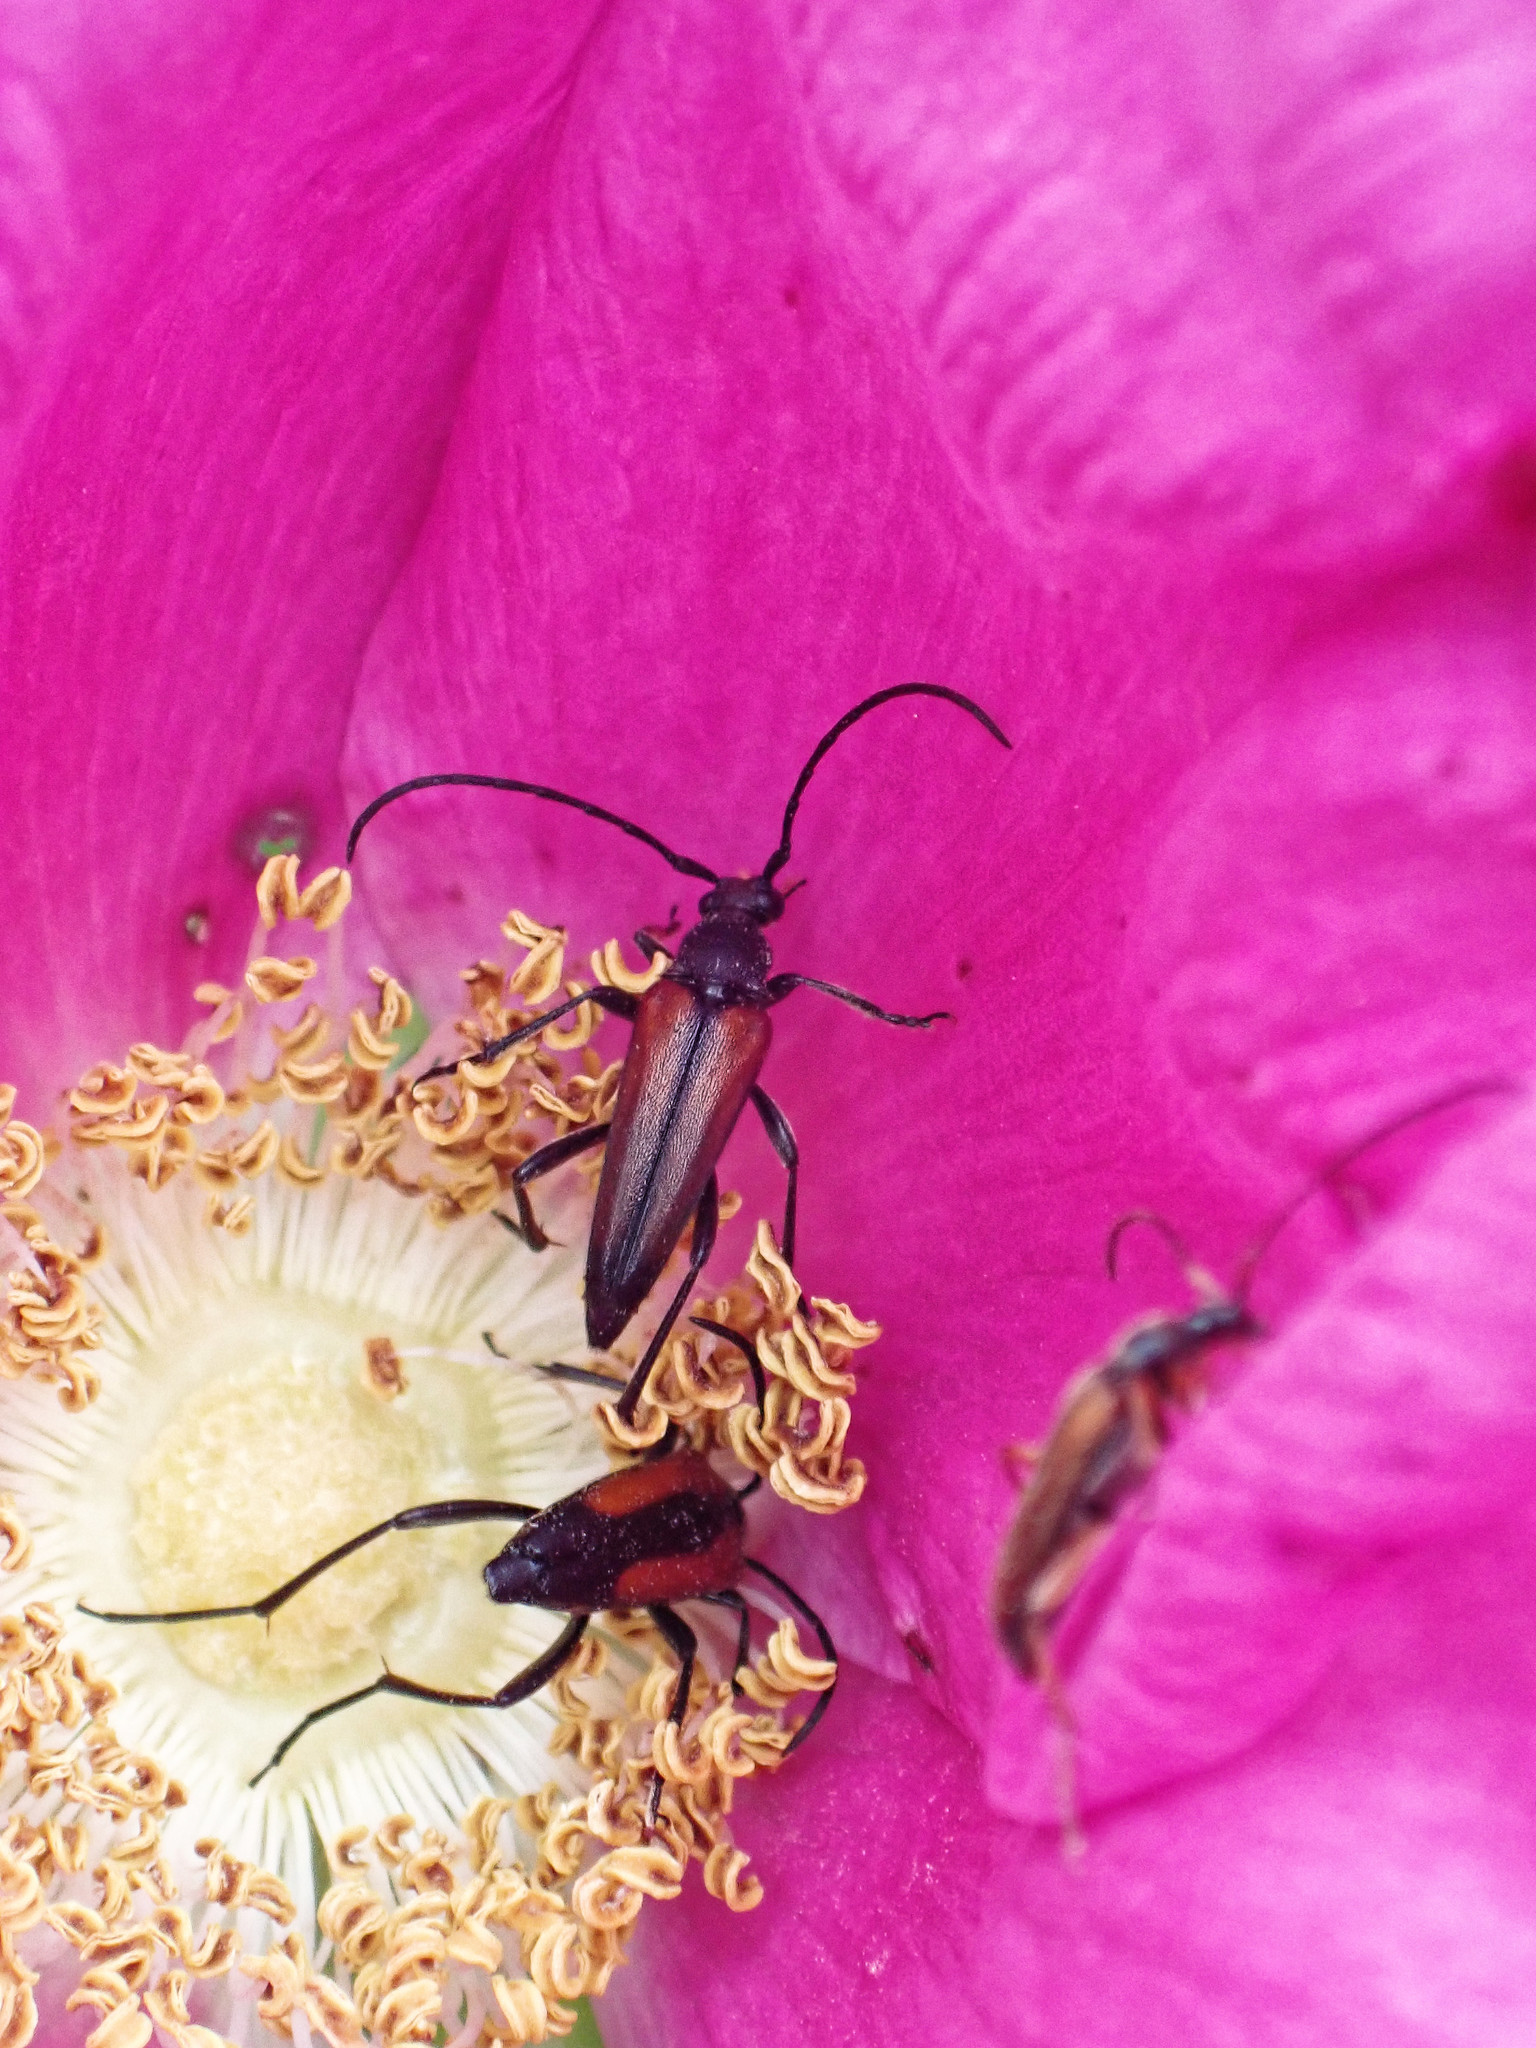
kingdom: Animalia
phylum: Arthropoda
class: Insecta
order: Coleoptera
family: Cerambycidae
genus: Stenurella
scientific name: Stenurella melanura
